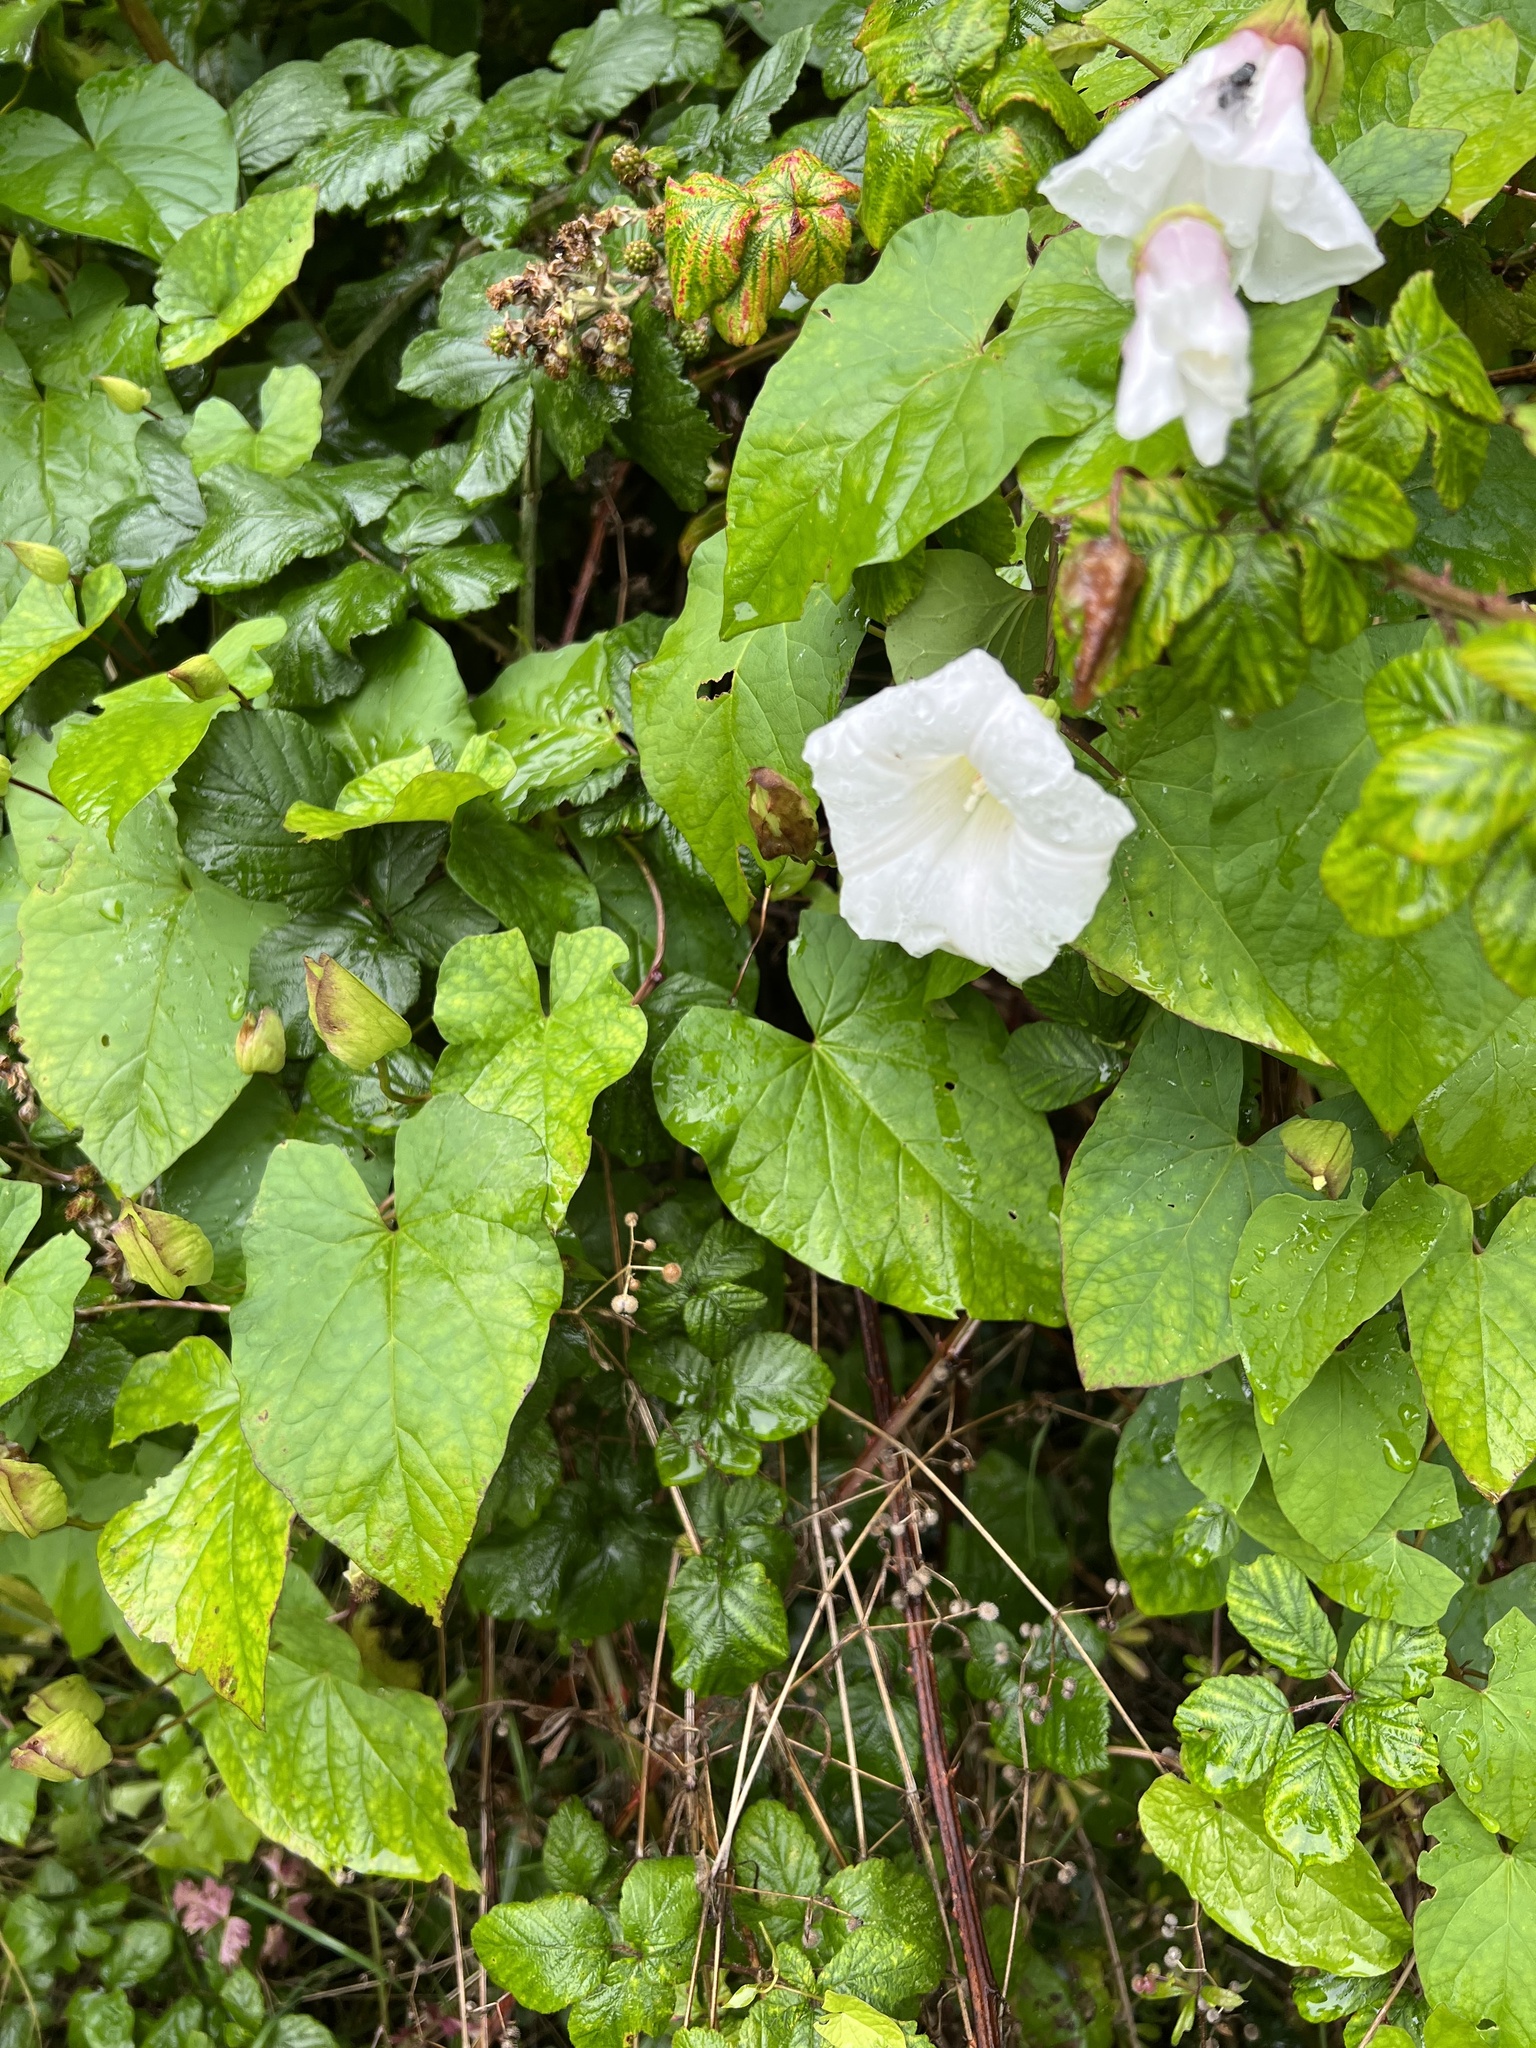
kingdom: Plantae
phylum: Tracheophyta
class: Magnoliopsida
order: Solanales
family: Convolvulaceae
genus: Calystegia
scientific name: Calystegia silvatica
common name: Large bindweed
